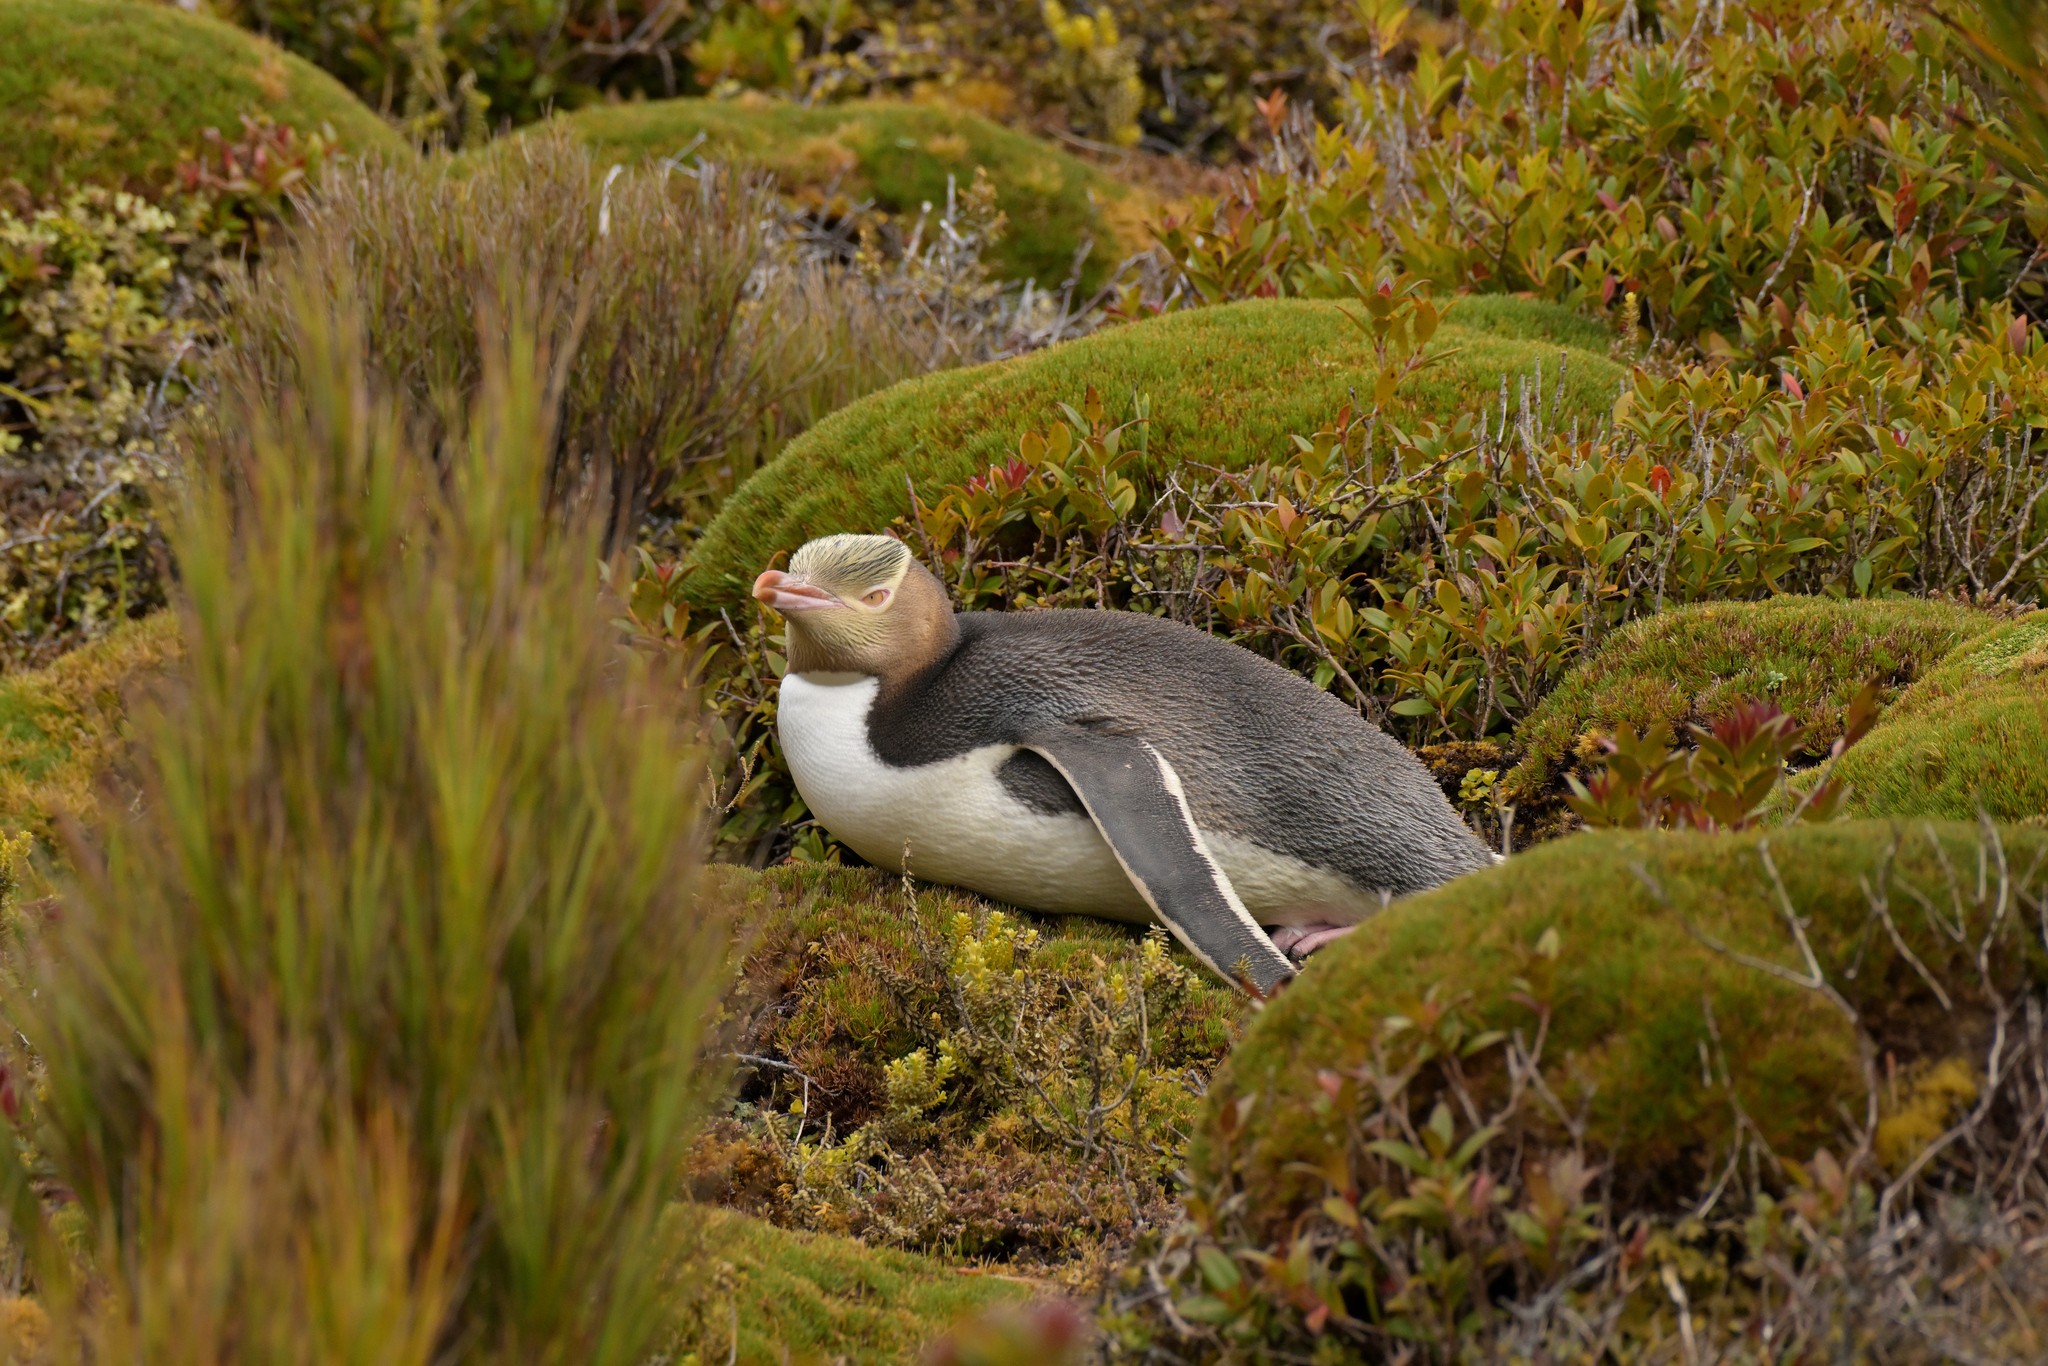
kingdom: Animalia
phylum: Chordata
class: Aves
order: Sphenisciformes
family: Spheniscidae
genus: Megadyptes
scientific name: Megadyptes antipodes
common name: Yellow-eyed penguin
